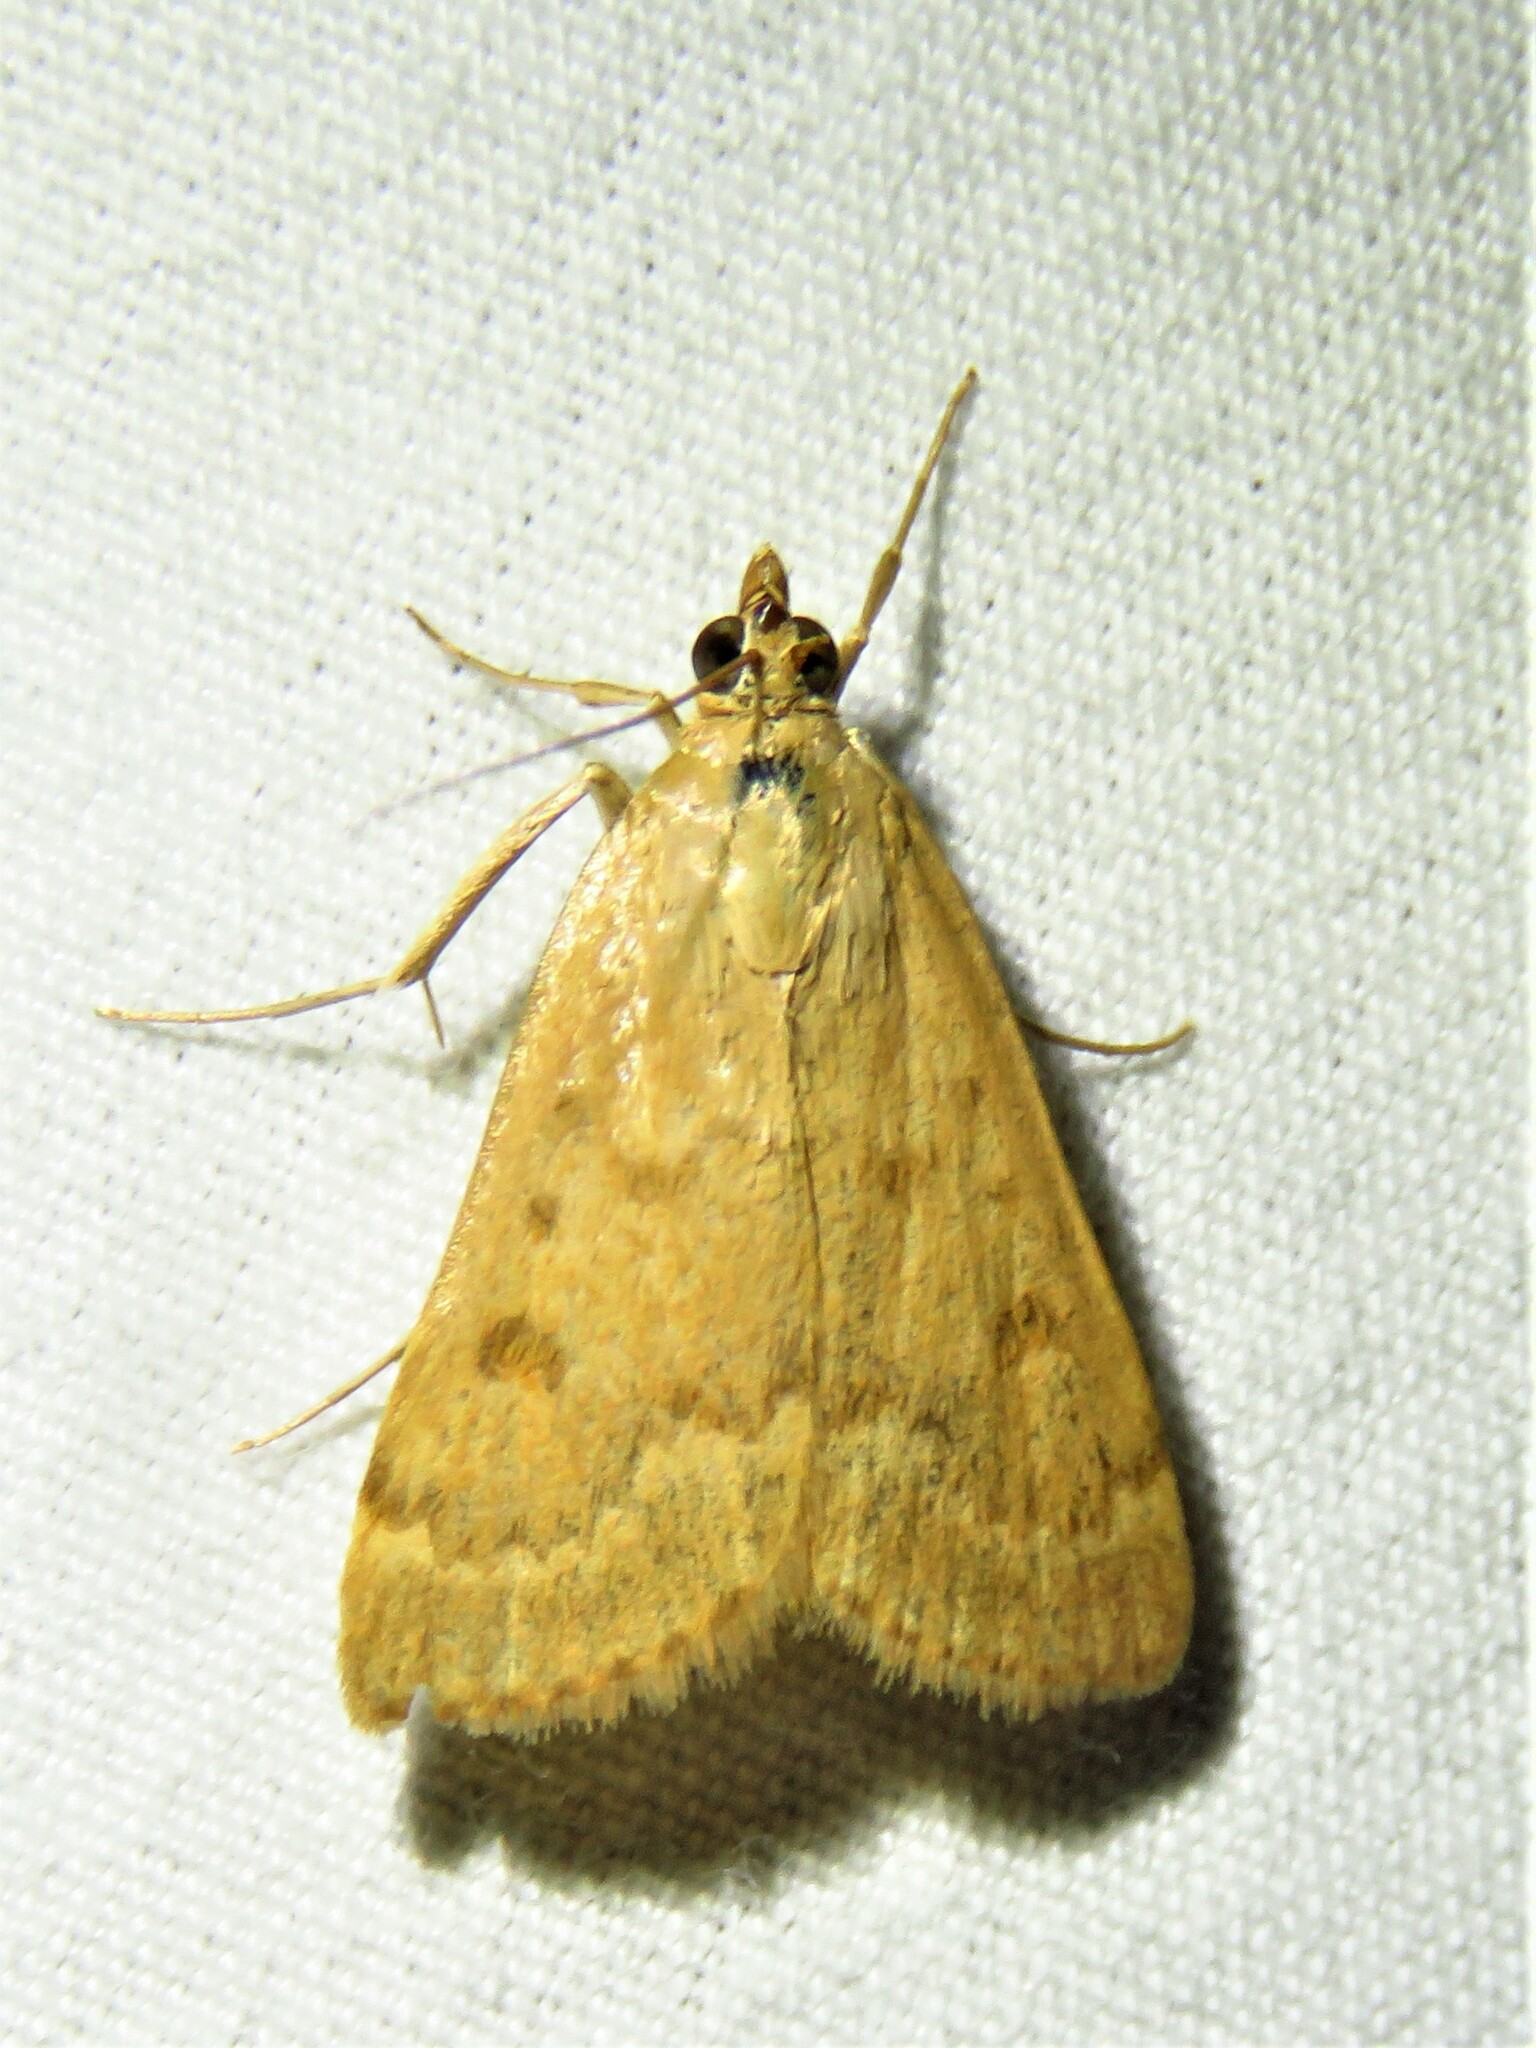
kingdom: Animalia
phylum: Arthropoda
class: Insecta
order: Lepidoptera
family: Crambidae
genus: Achyra
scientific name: Achyra rantalis
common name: Garden webworm
